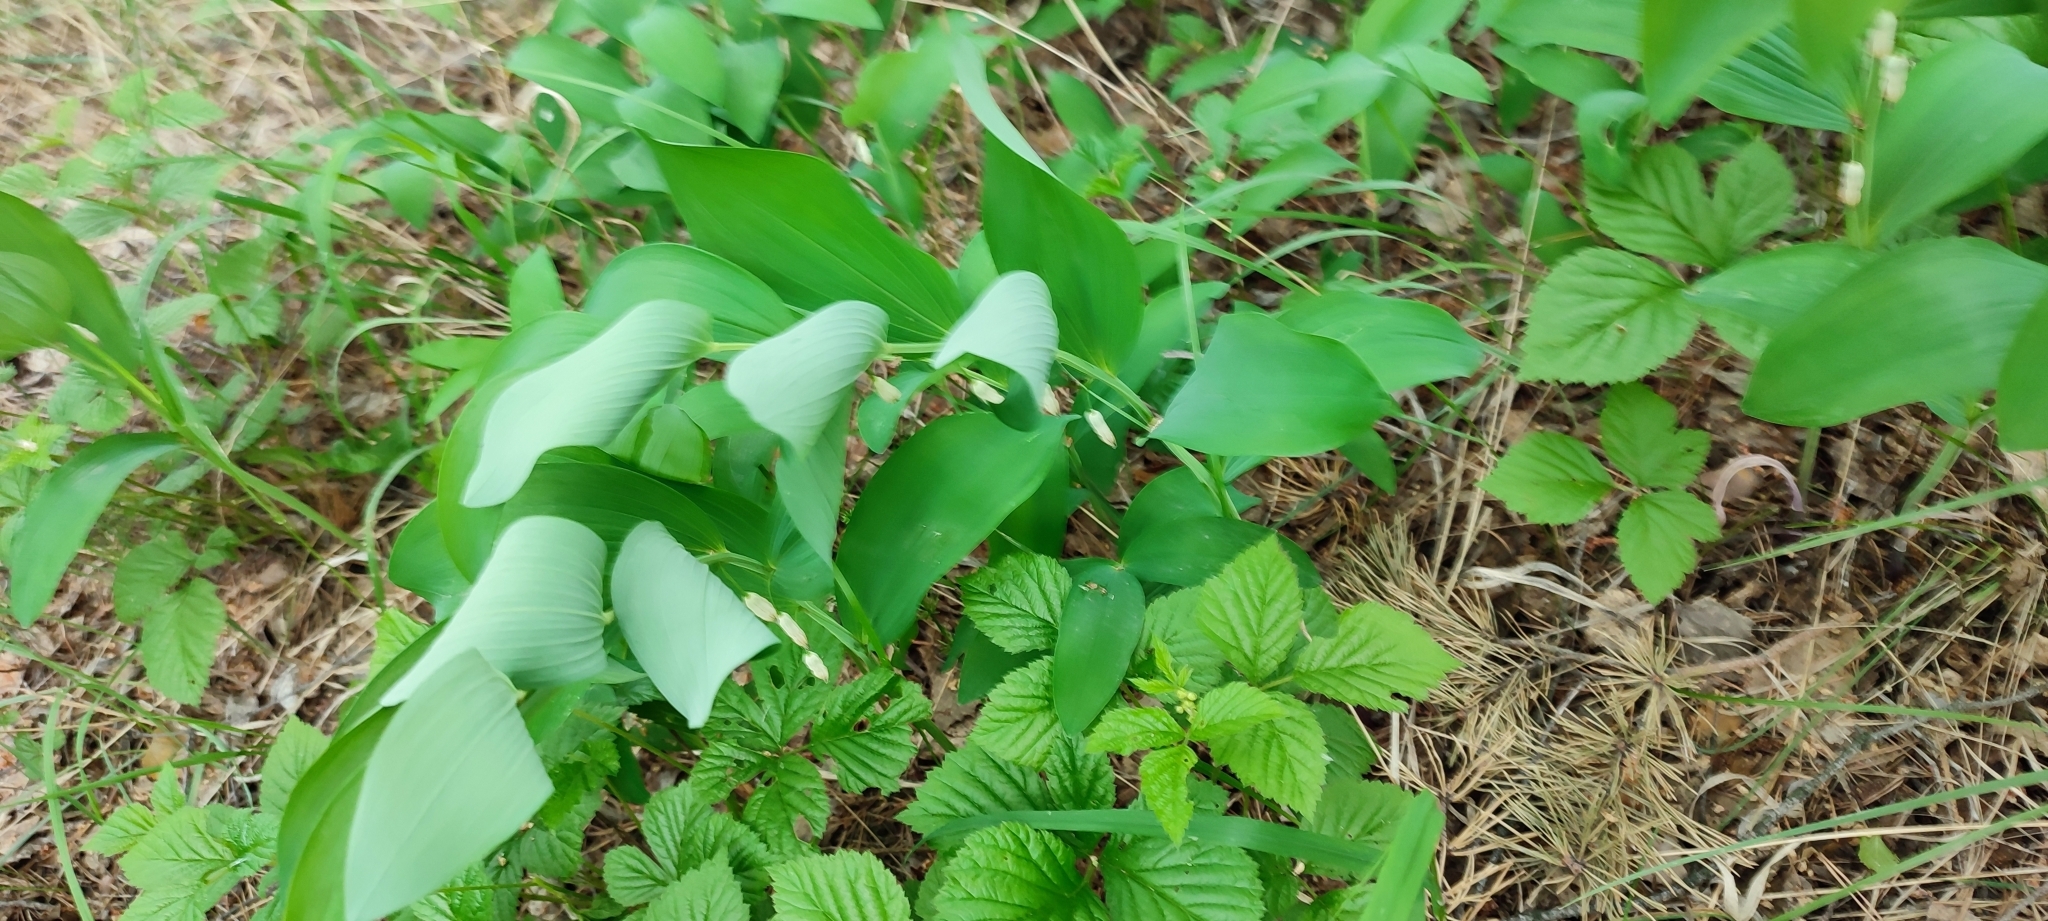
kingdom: Plantae
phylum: Tracheophyta
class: Liliopsida
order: Asparagales
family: Asparagaceae
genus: Polygonatum
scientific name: Polygonatum odoratum
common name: Angular solomon's-seal
